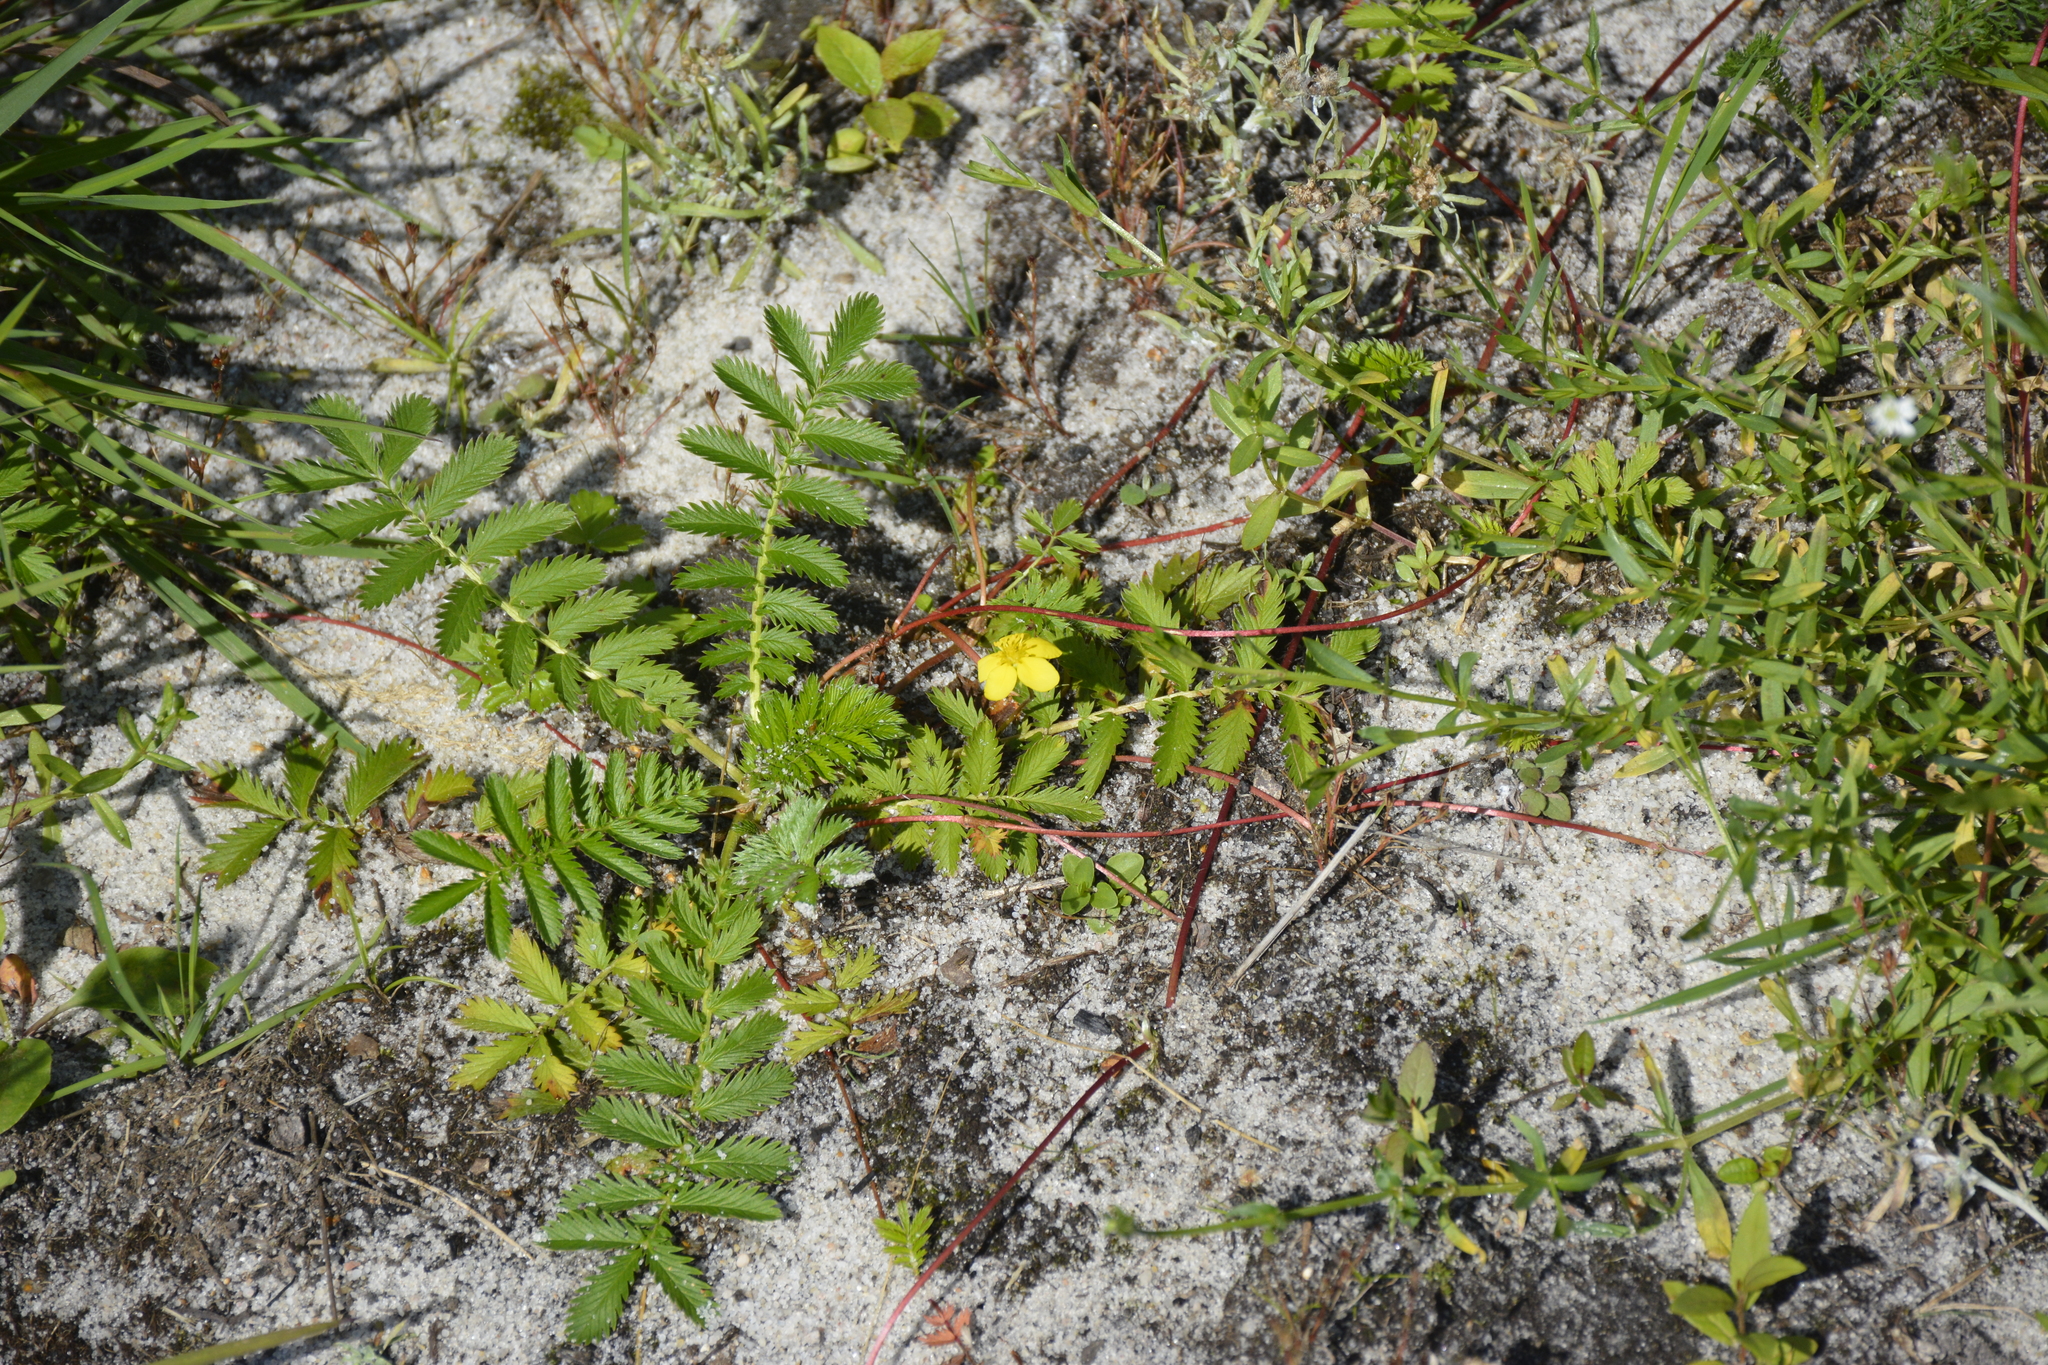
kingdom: Plantae
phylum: Tracheophyta
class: Magnoliopsida
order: Rosales
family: Rosaceae
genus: Argentina
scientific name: Argentina anserina
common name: Common silverweed
